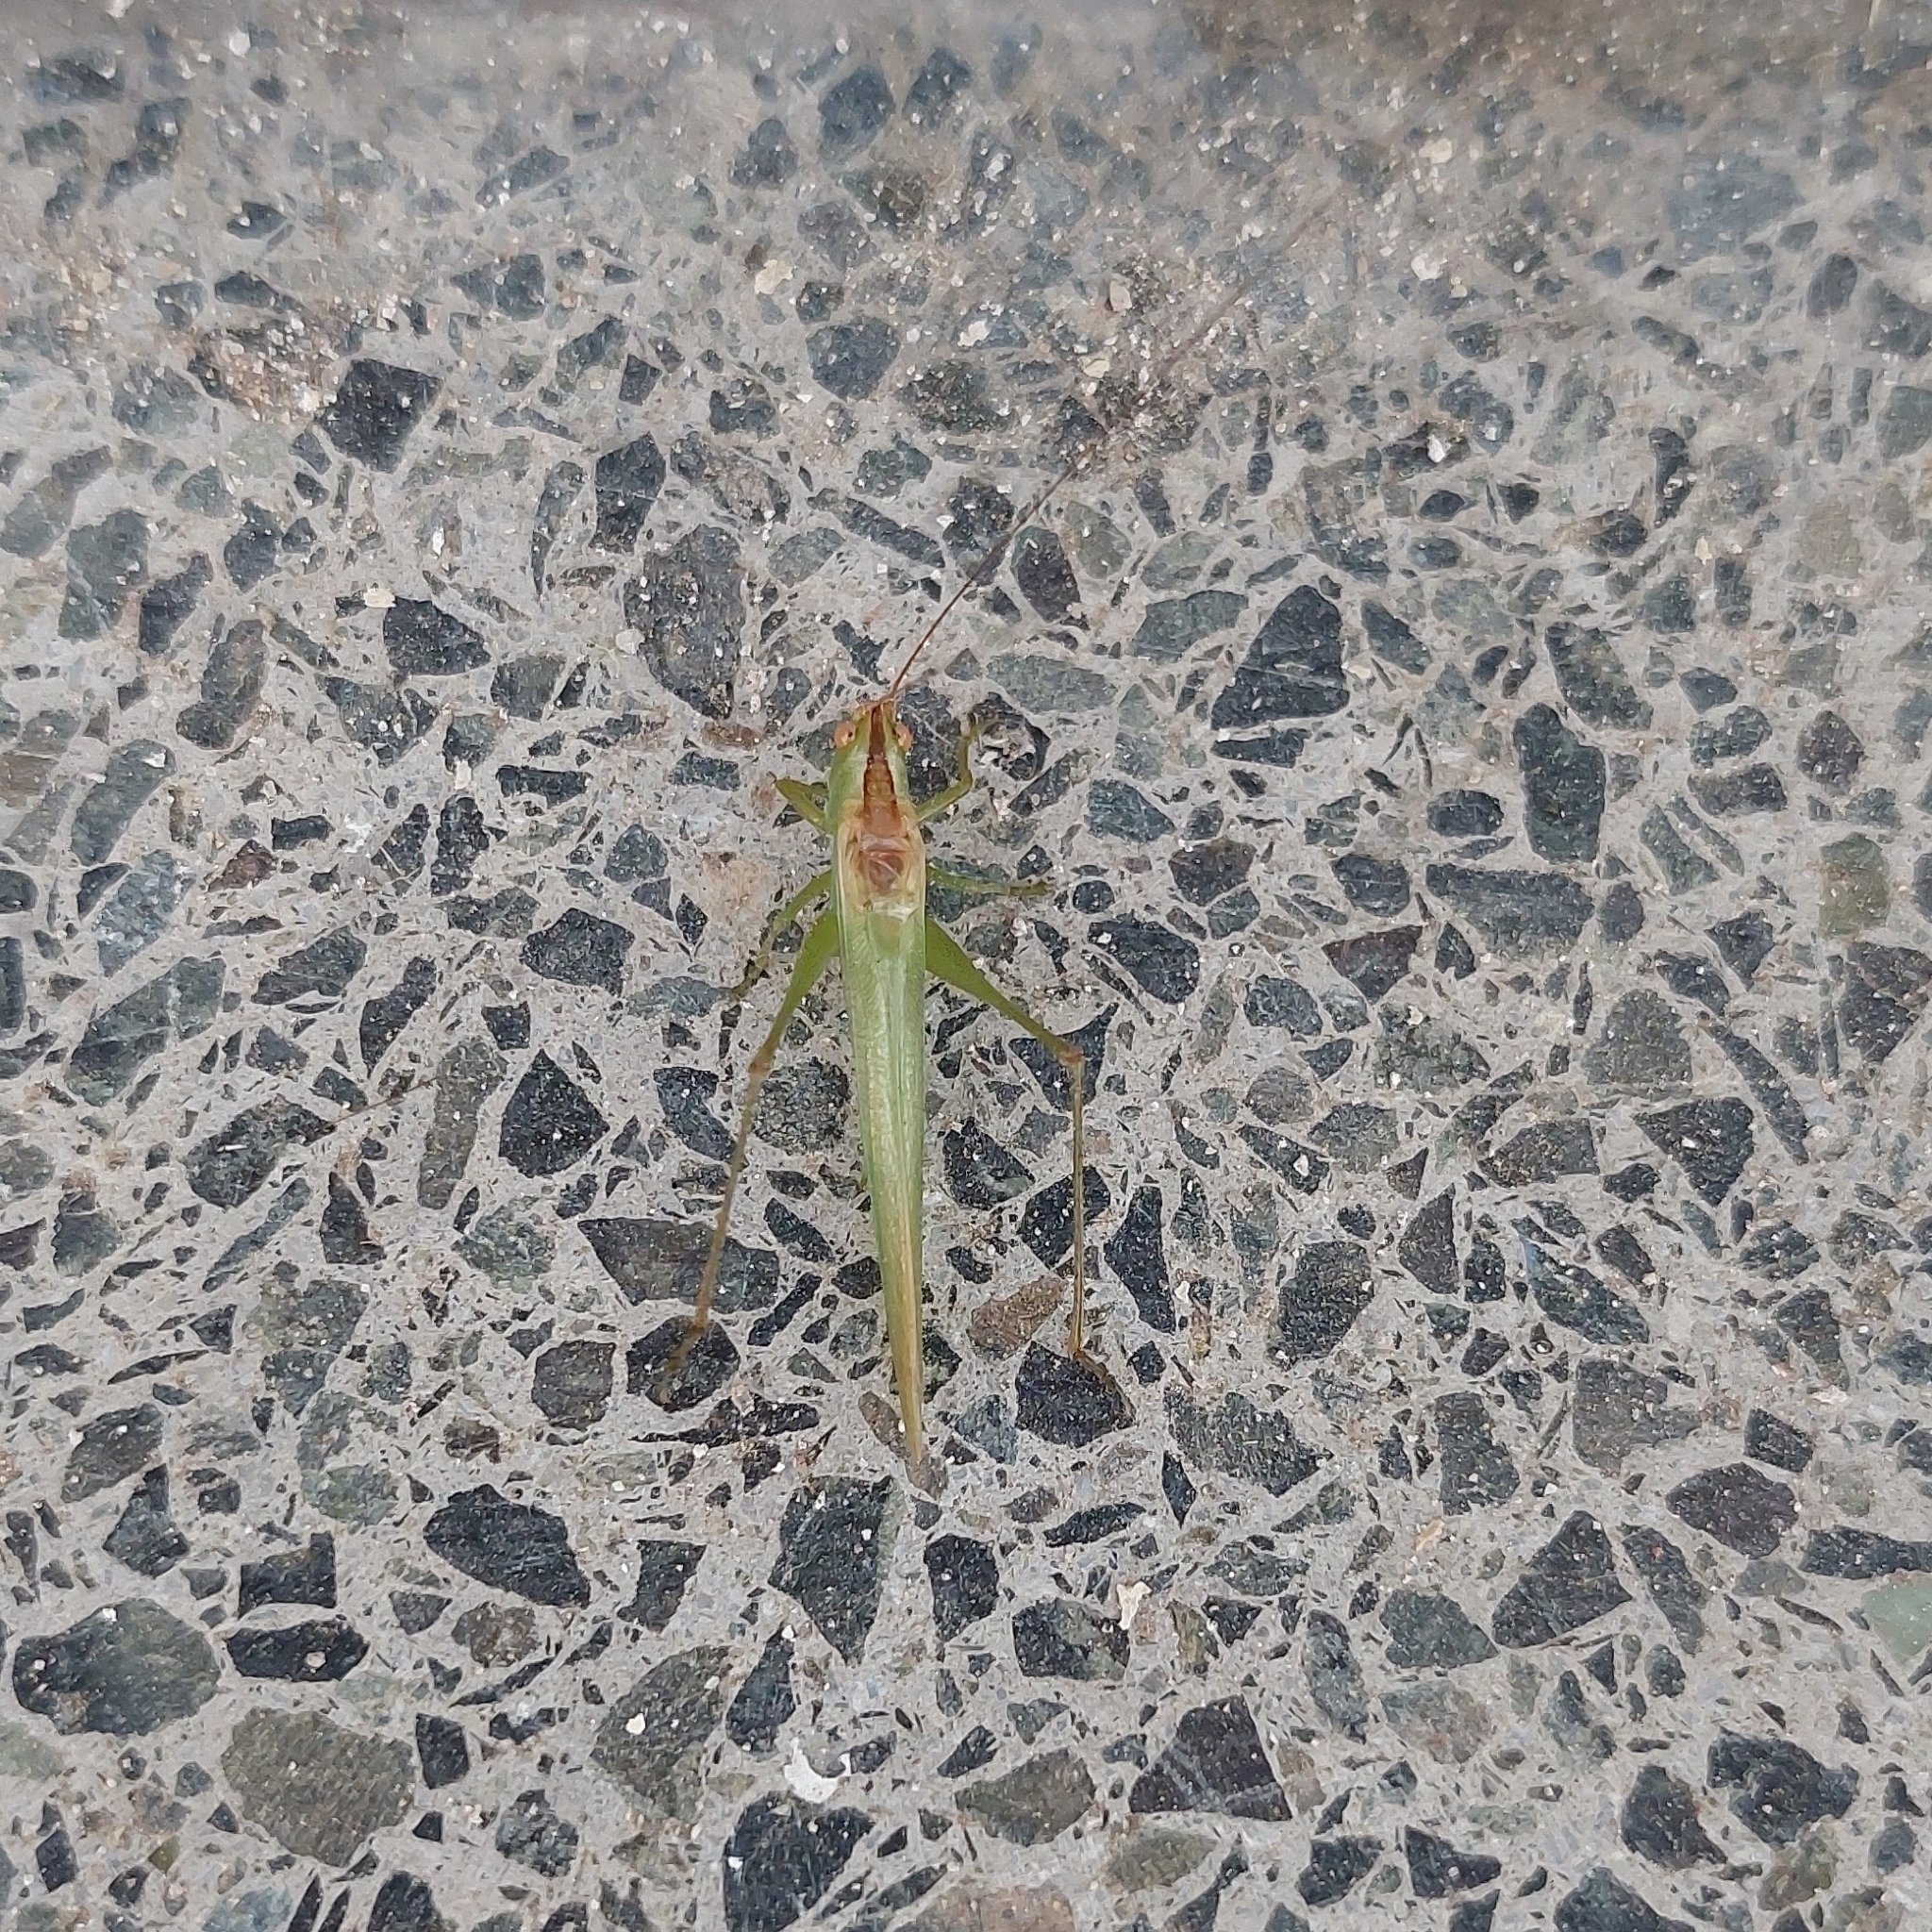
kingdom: Animalia
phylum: Arthropoda
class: Insecta
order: Orthoptera
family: Tettigoniidae
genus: Conocephalus
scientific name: Conocephalus longipes
